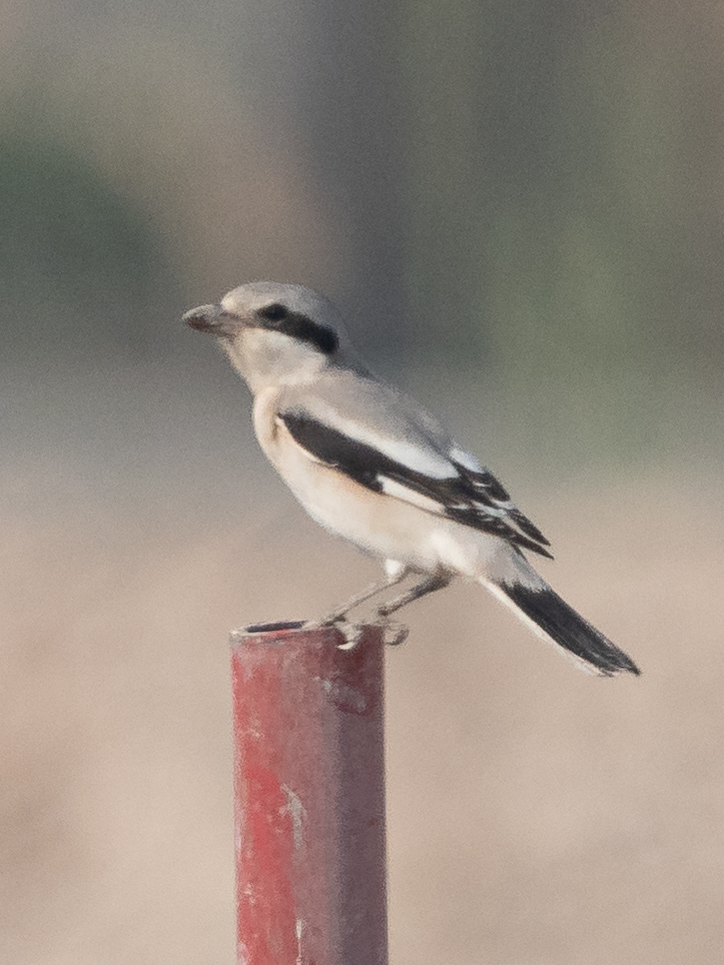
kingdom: Animalia
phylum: Chordata
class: Aves
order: Passeriformes
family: Laniidae
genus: Lanius
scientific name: Lanius excubitor
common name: Great grey shrike
